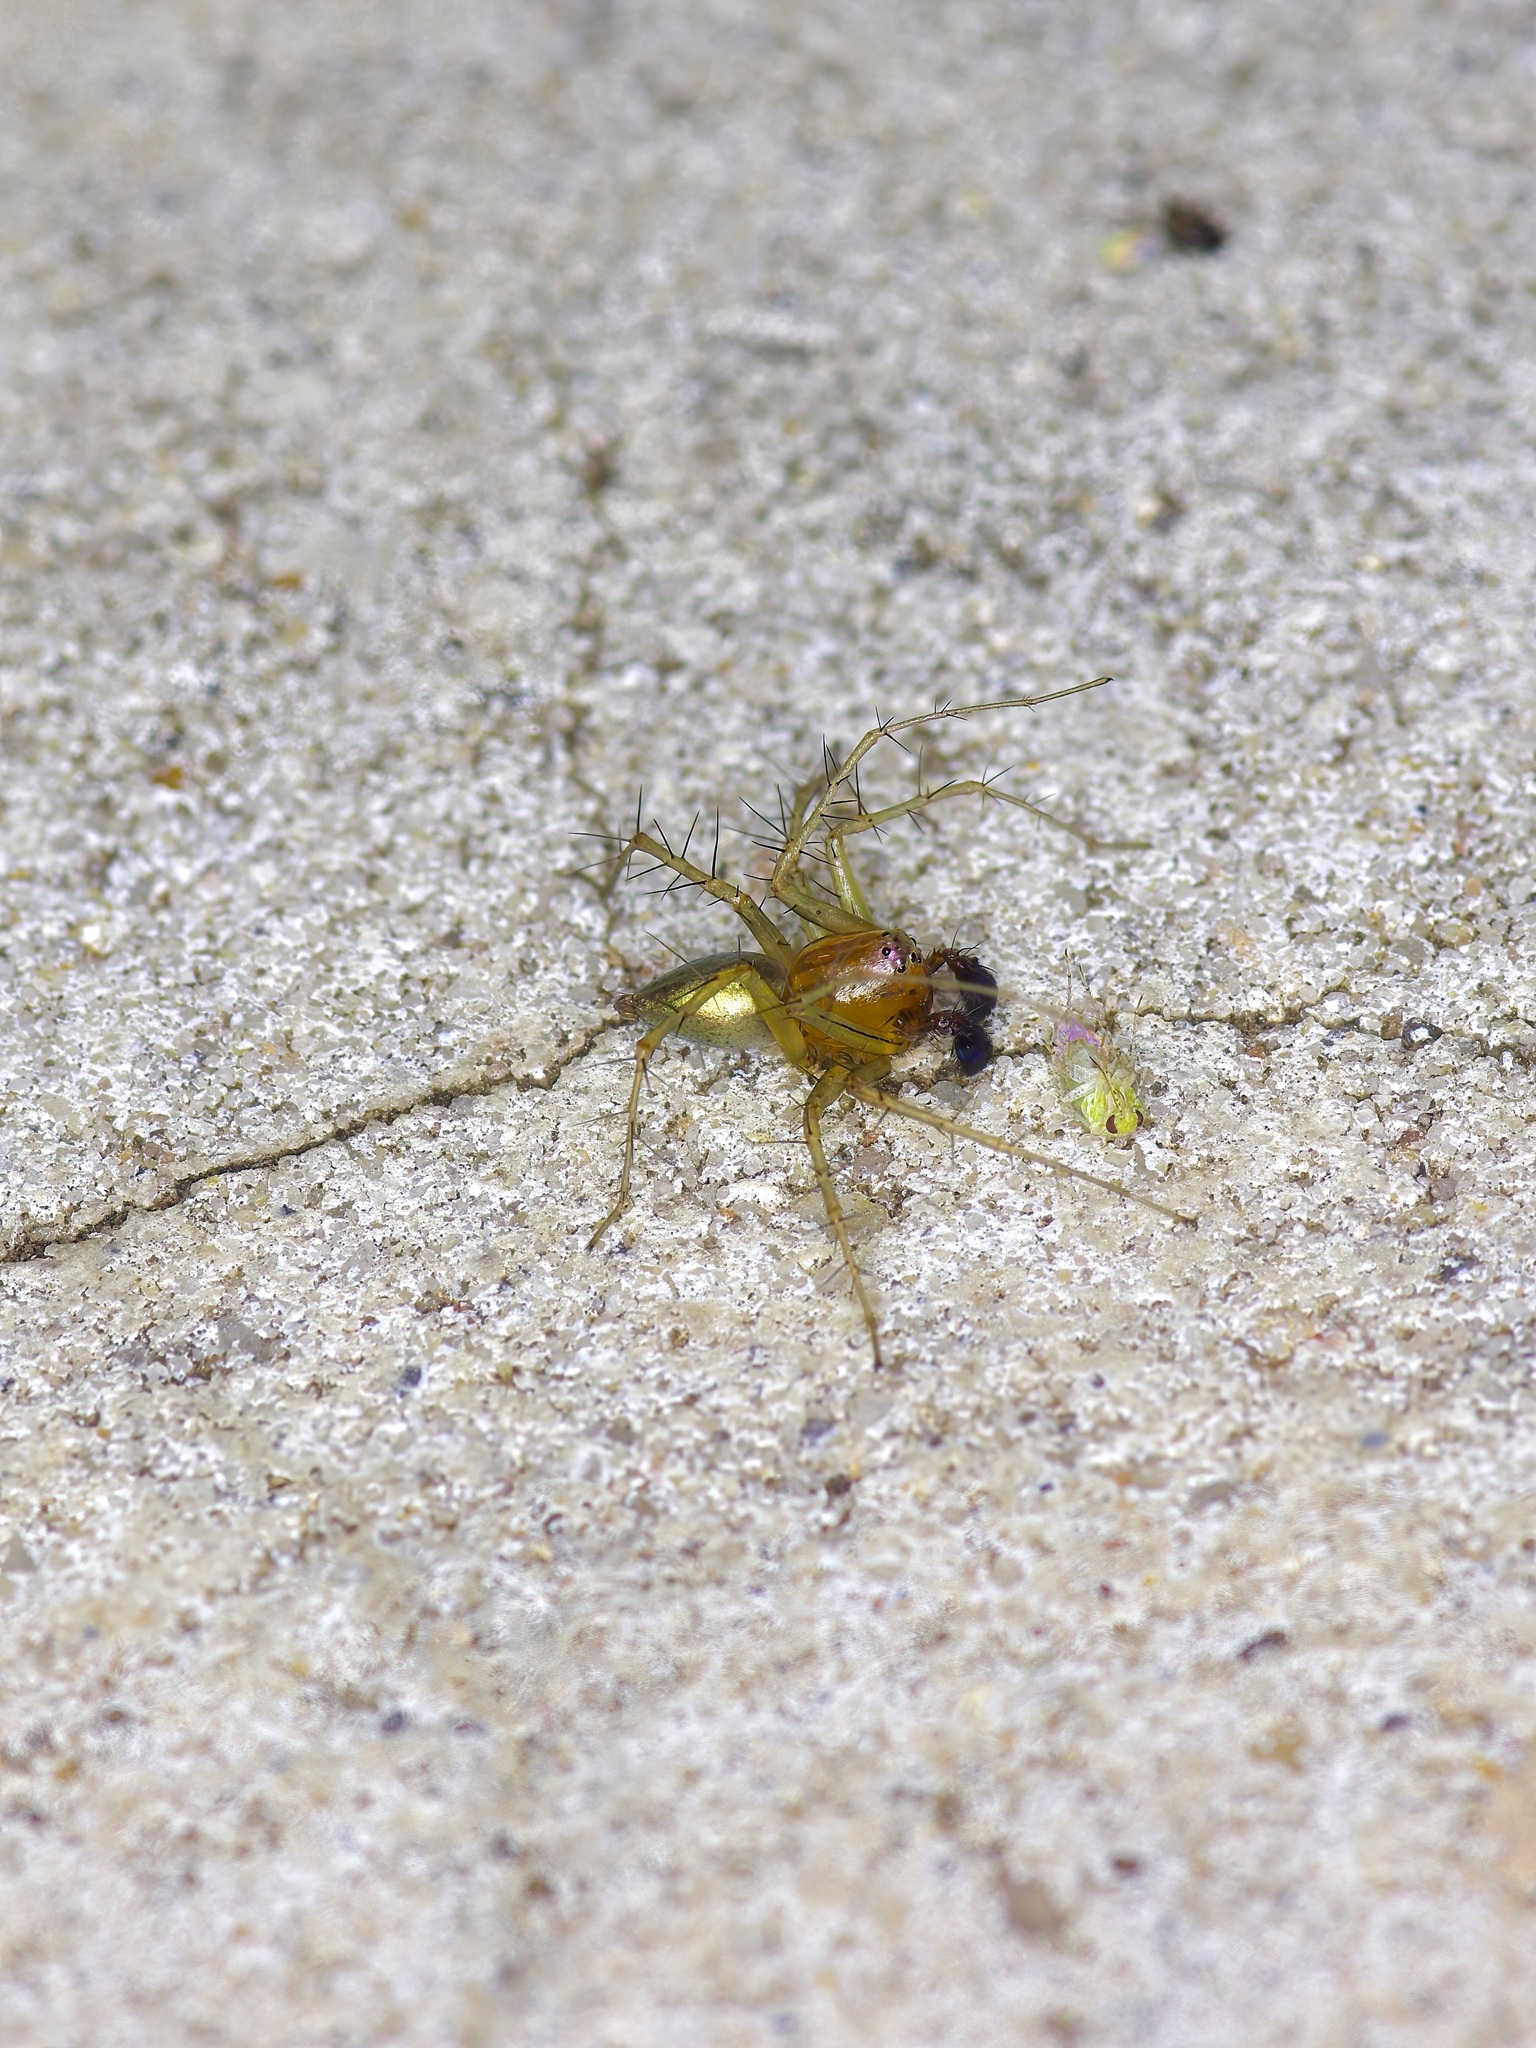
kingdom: Animalia
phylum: Arthropoda
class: Arachnida
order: Araneae
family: Oxyopidae
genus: Oxyopes
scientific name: Oxyopes salticus
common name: Lynx spiders
